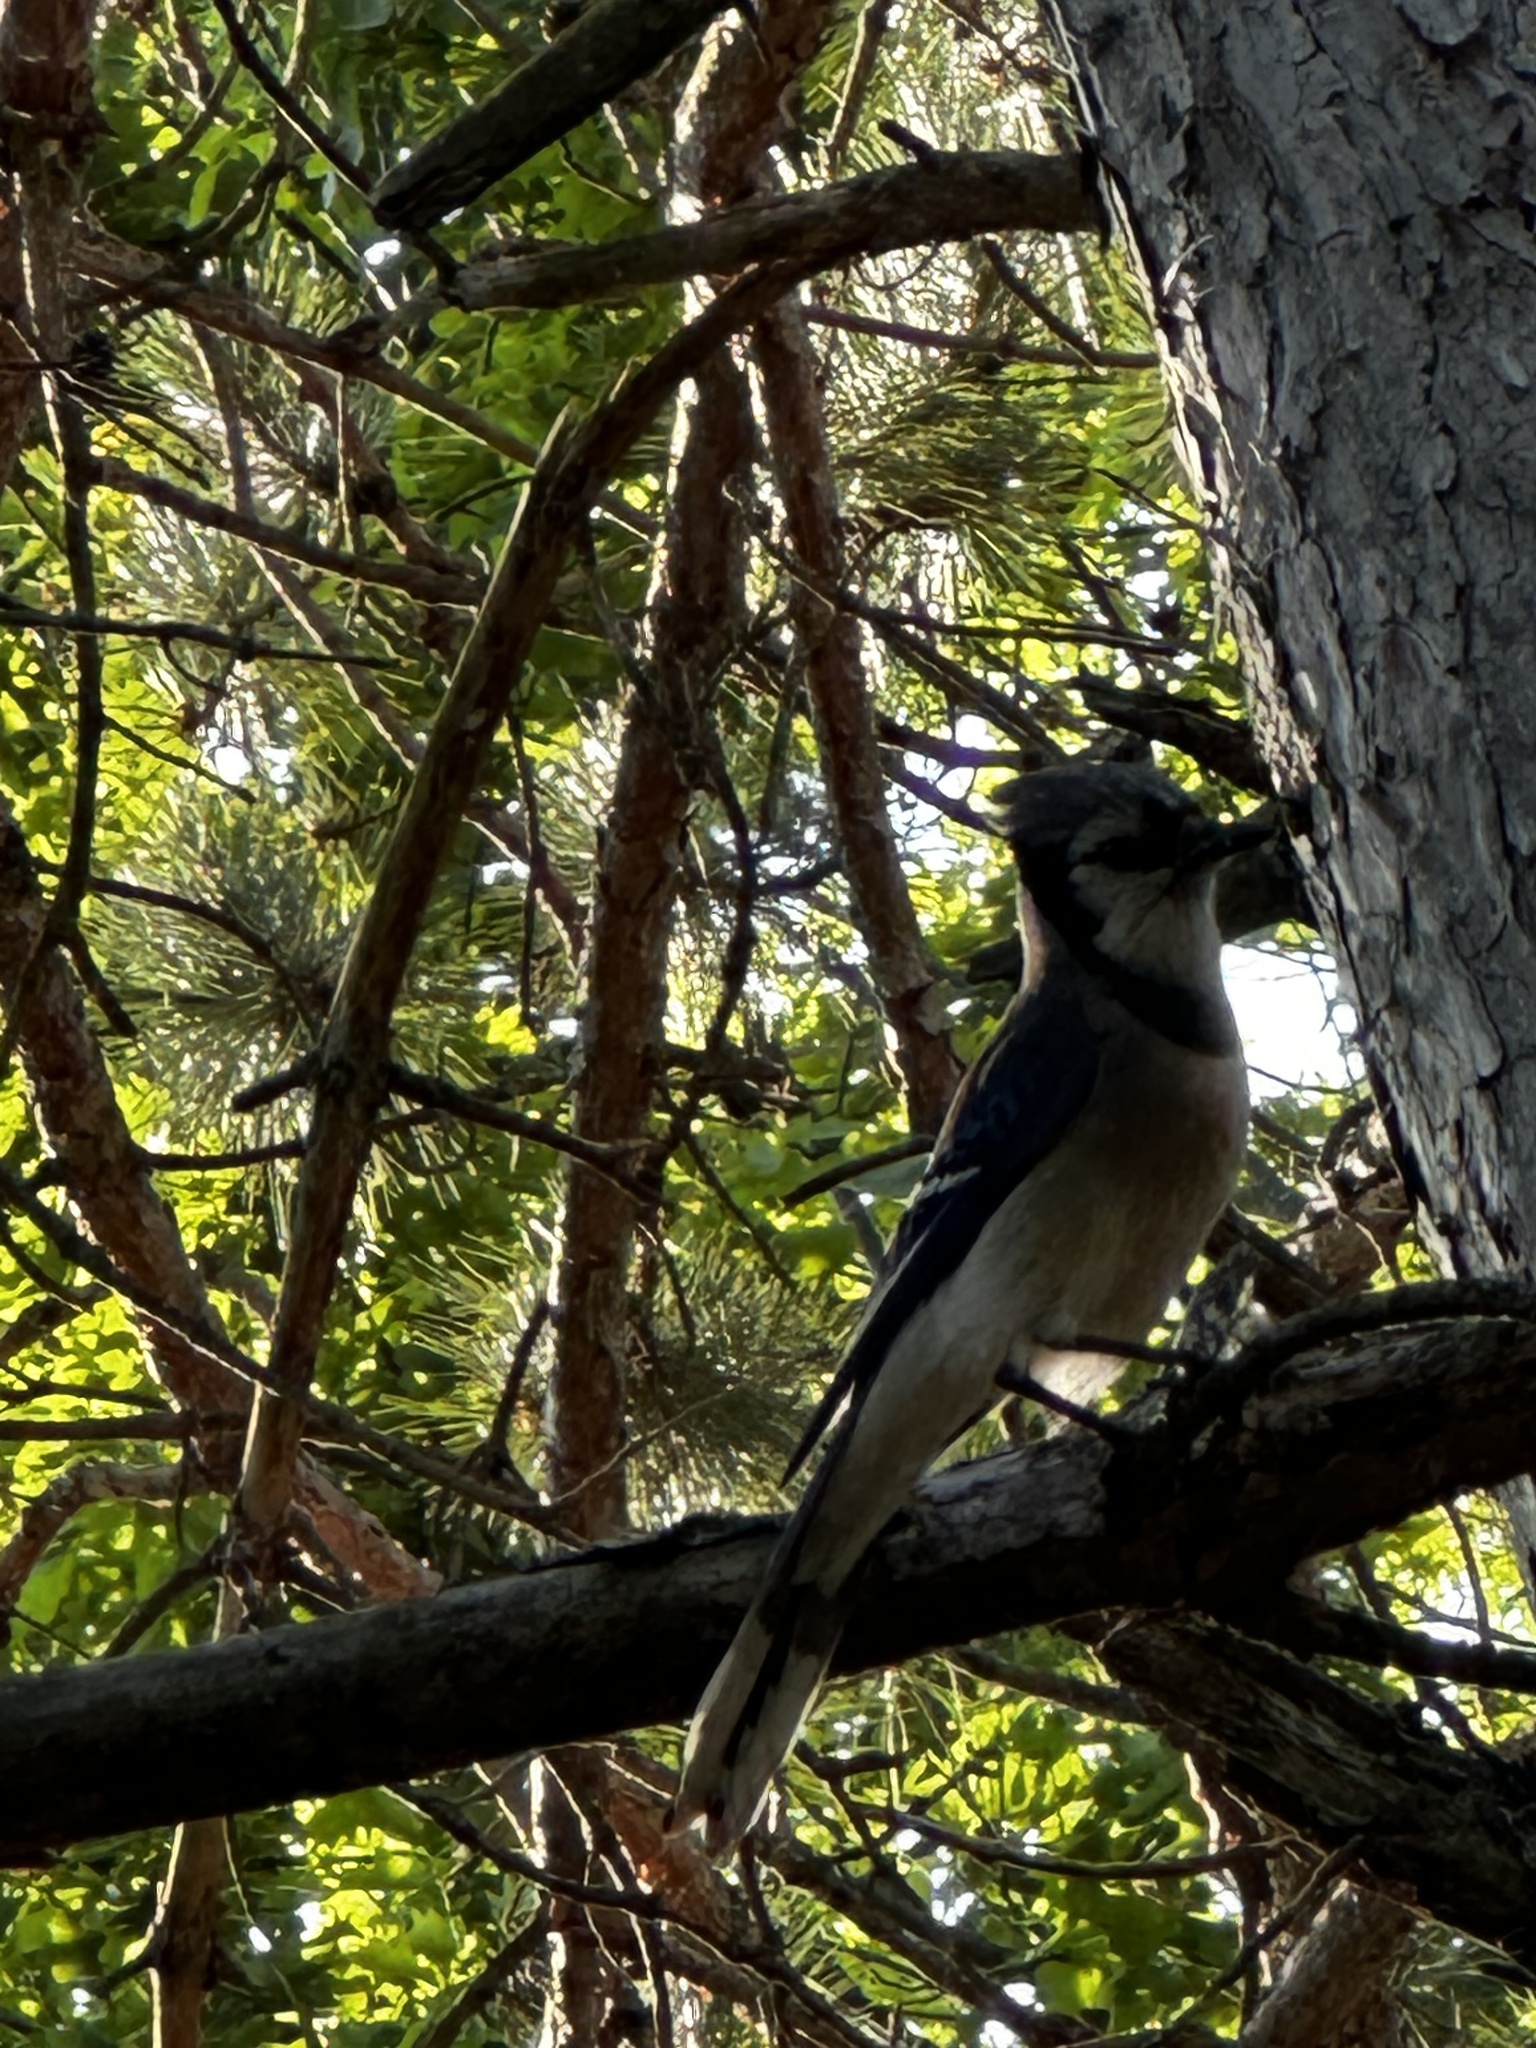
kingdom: Animalia
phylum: Chordata
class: Aves
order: Passeriformes
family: Corvidae
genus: Cyanocitta
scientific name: Cyanocitta cristata
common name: Blue jay
